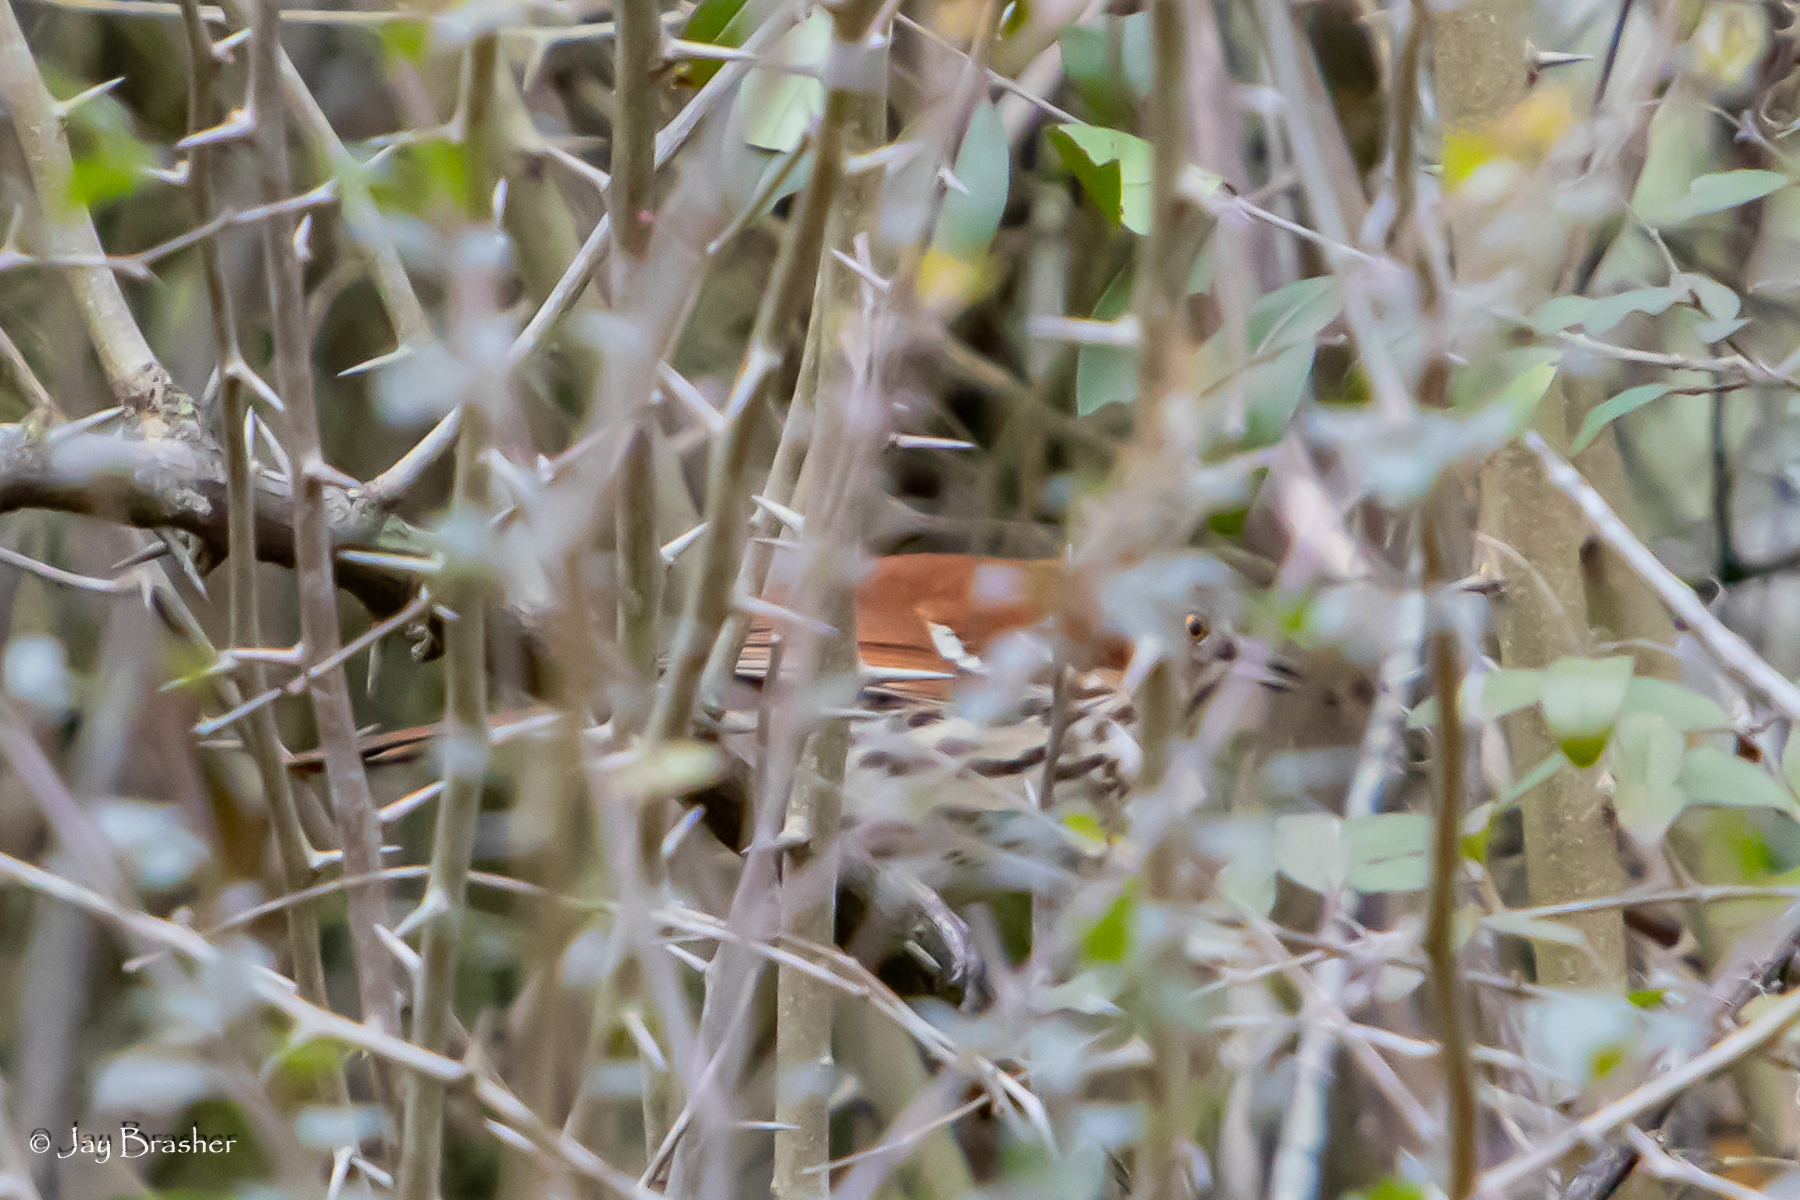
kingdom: Animalia
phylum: Chordata
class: Aves
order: Passeriformes
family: Mimidae
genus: Toxostoma
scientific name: Toxostoma rufum
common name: Brown thrasher
